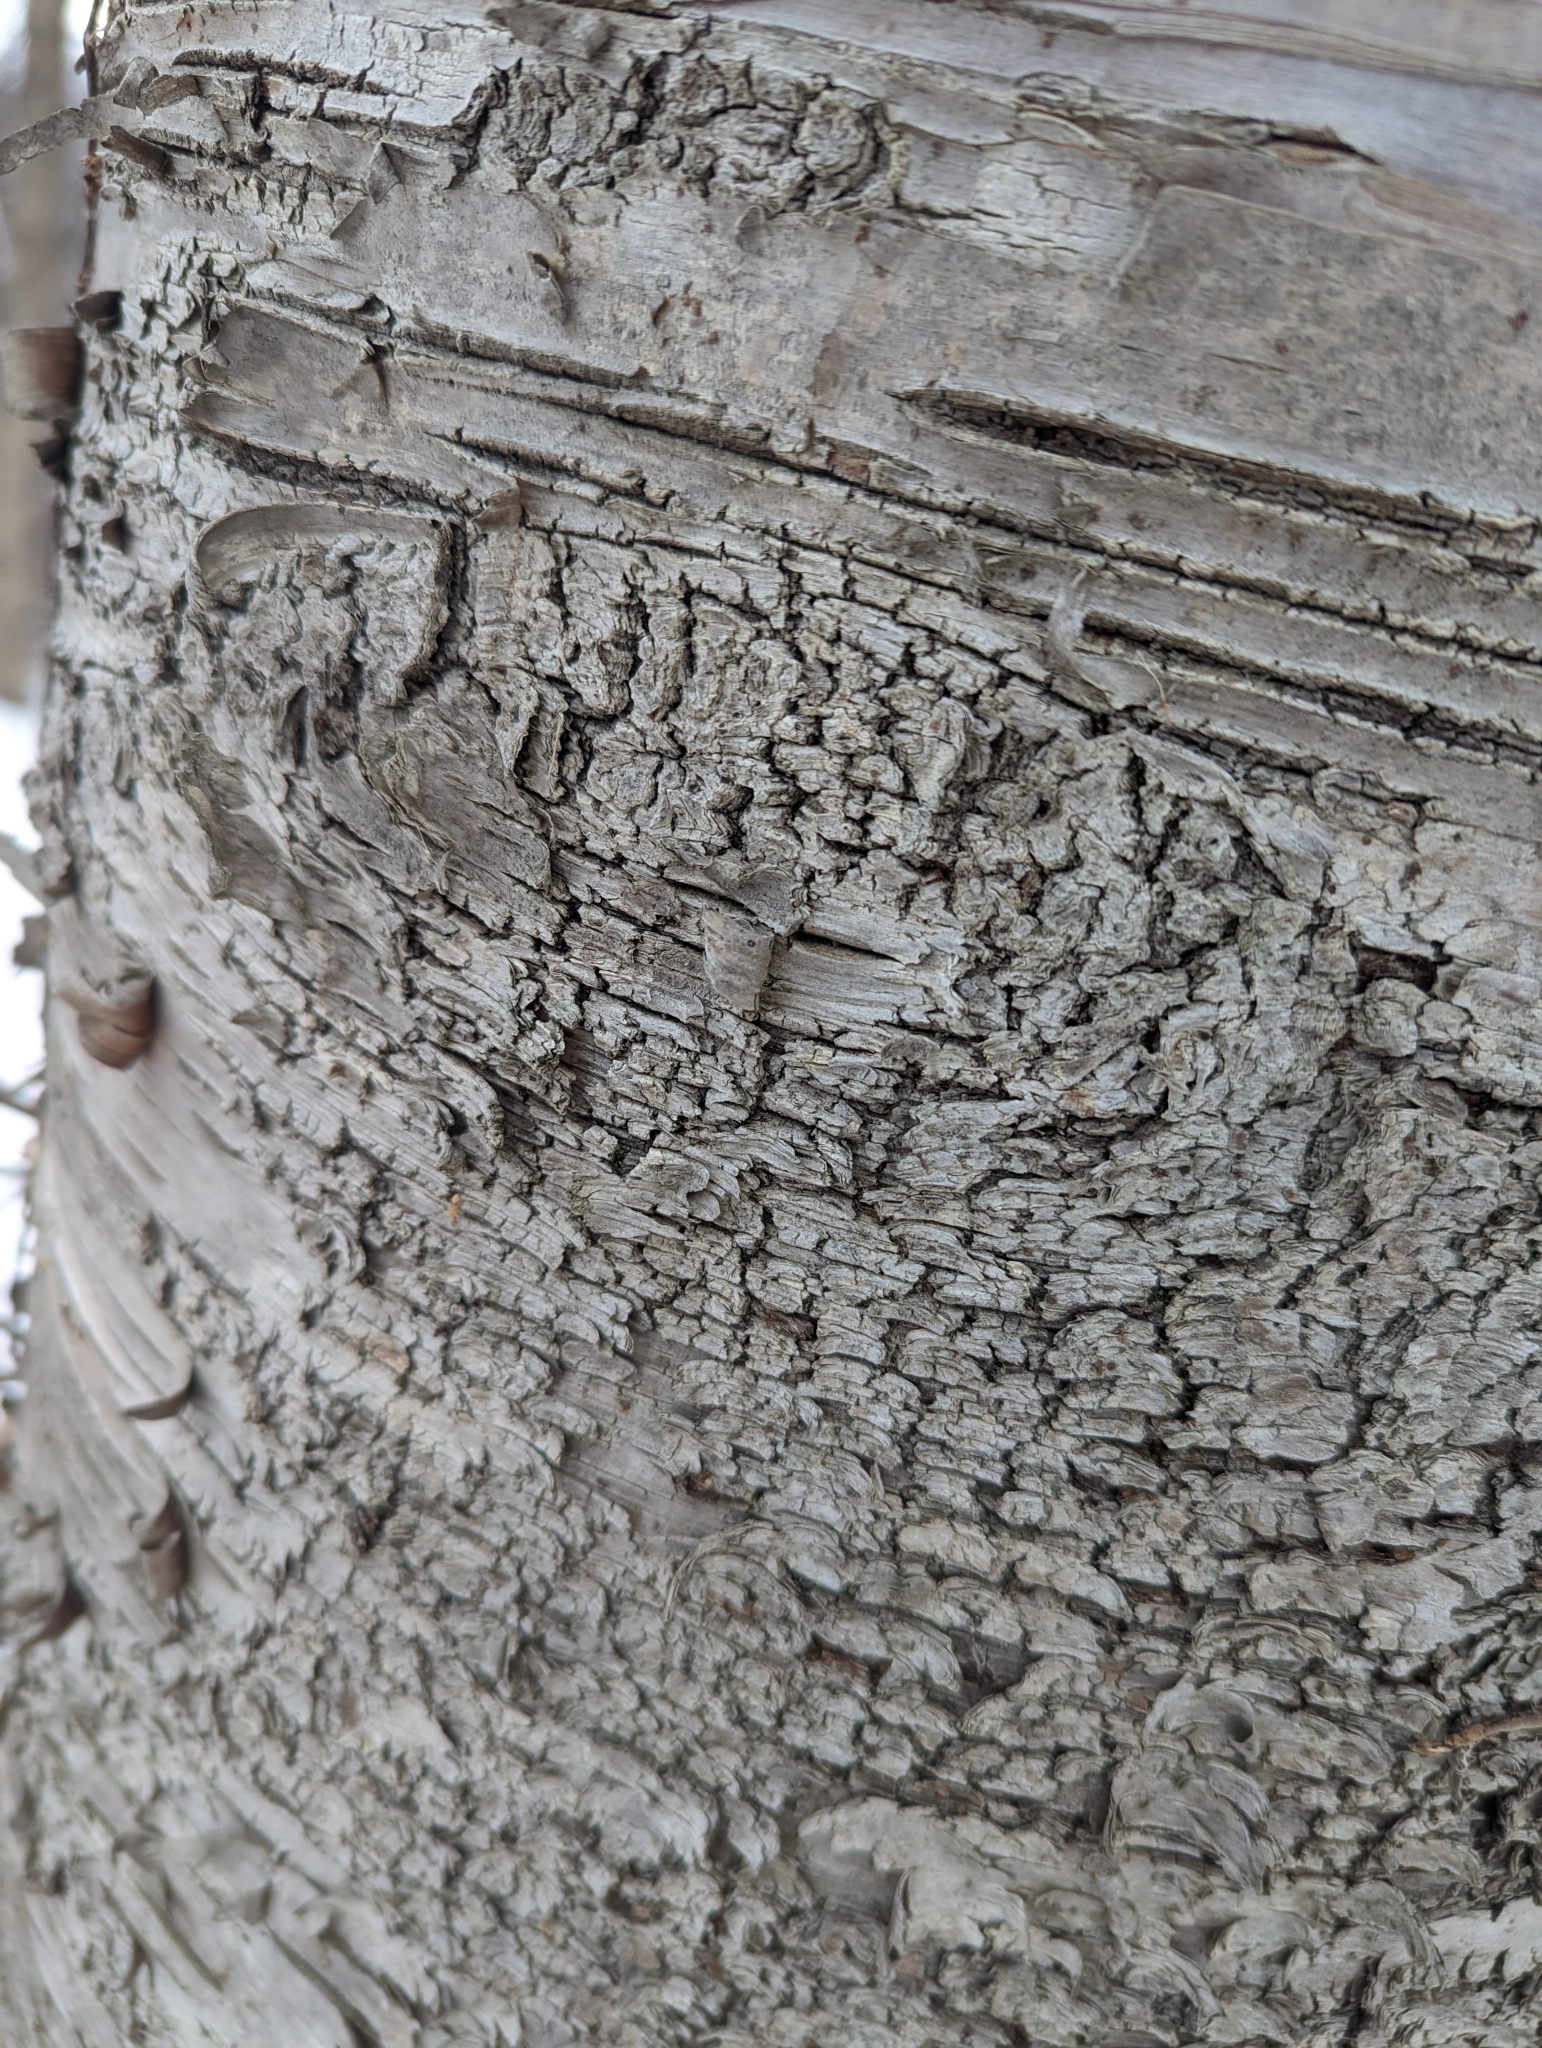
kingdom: Plantae
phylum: Tracheophyta
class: Magnoliopsida
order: Fagales
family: Betulaceae
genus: Betula
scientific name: Betula alleghaniensis
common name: Yellow birch
